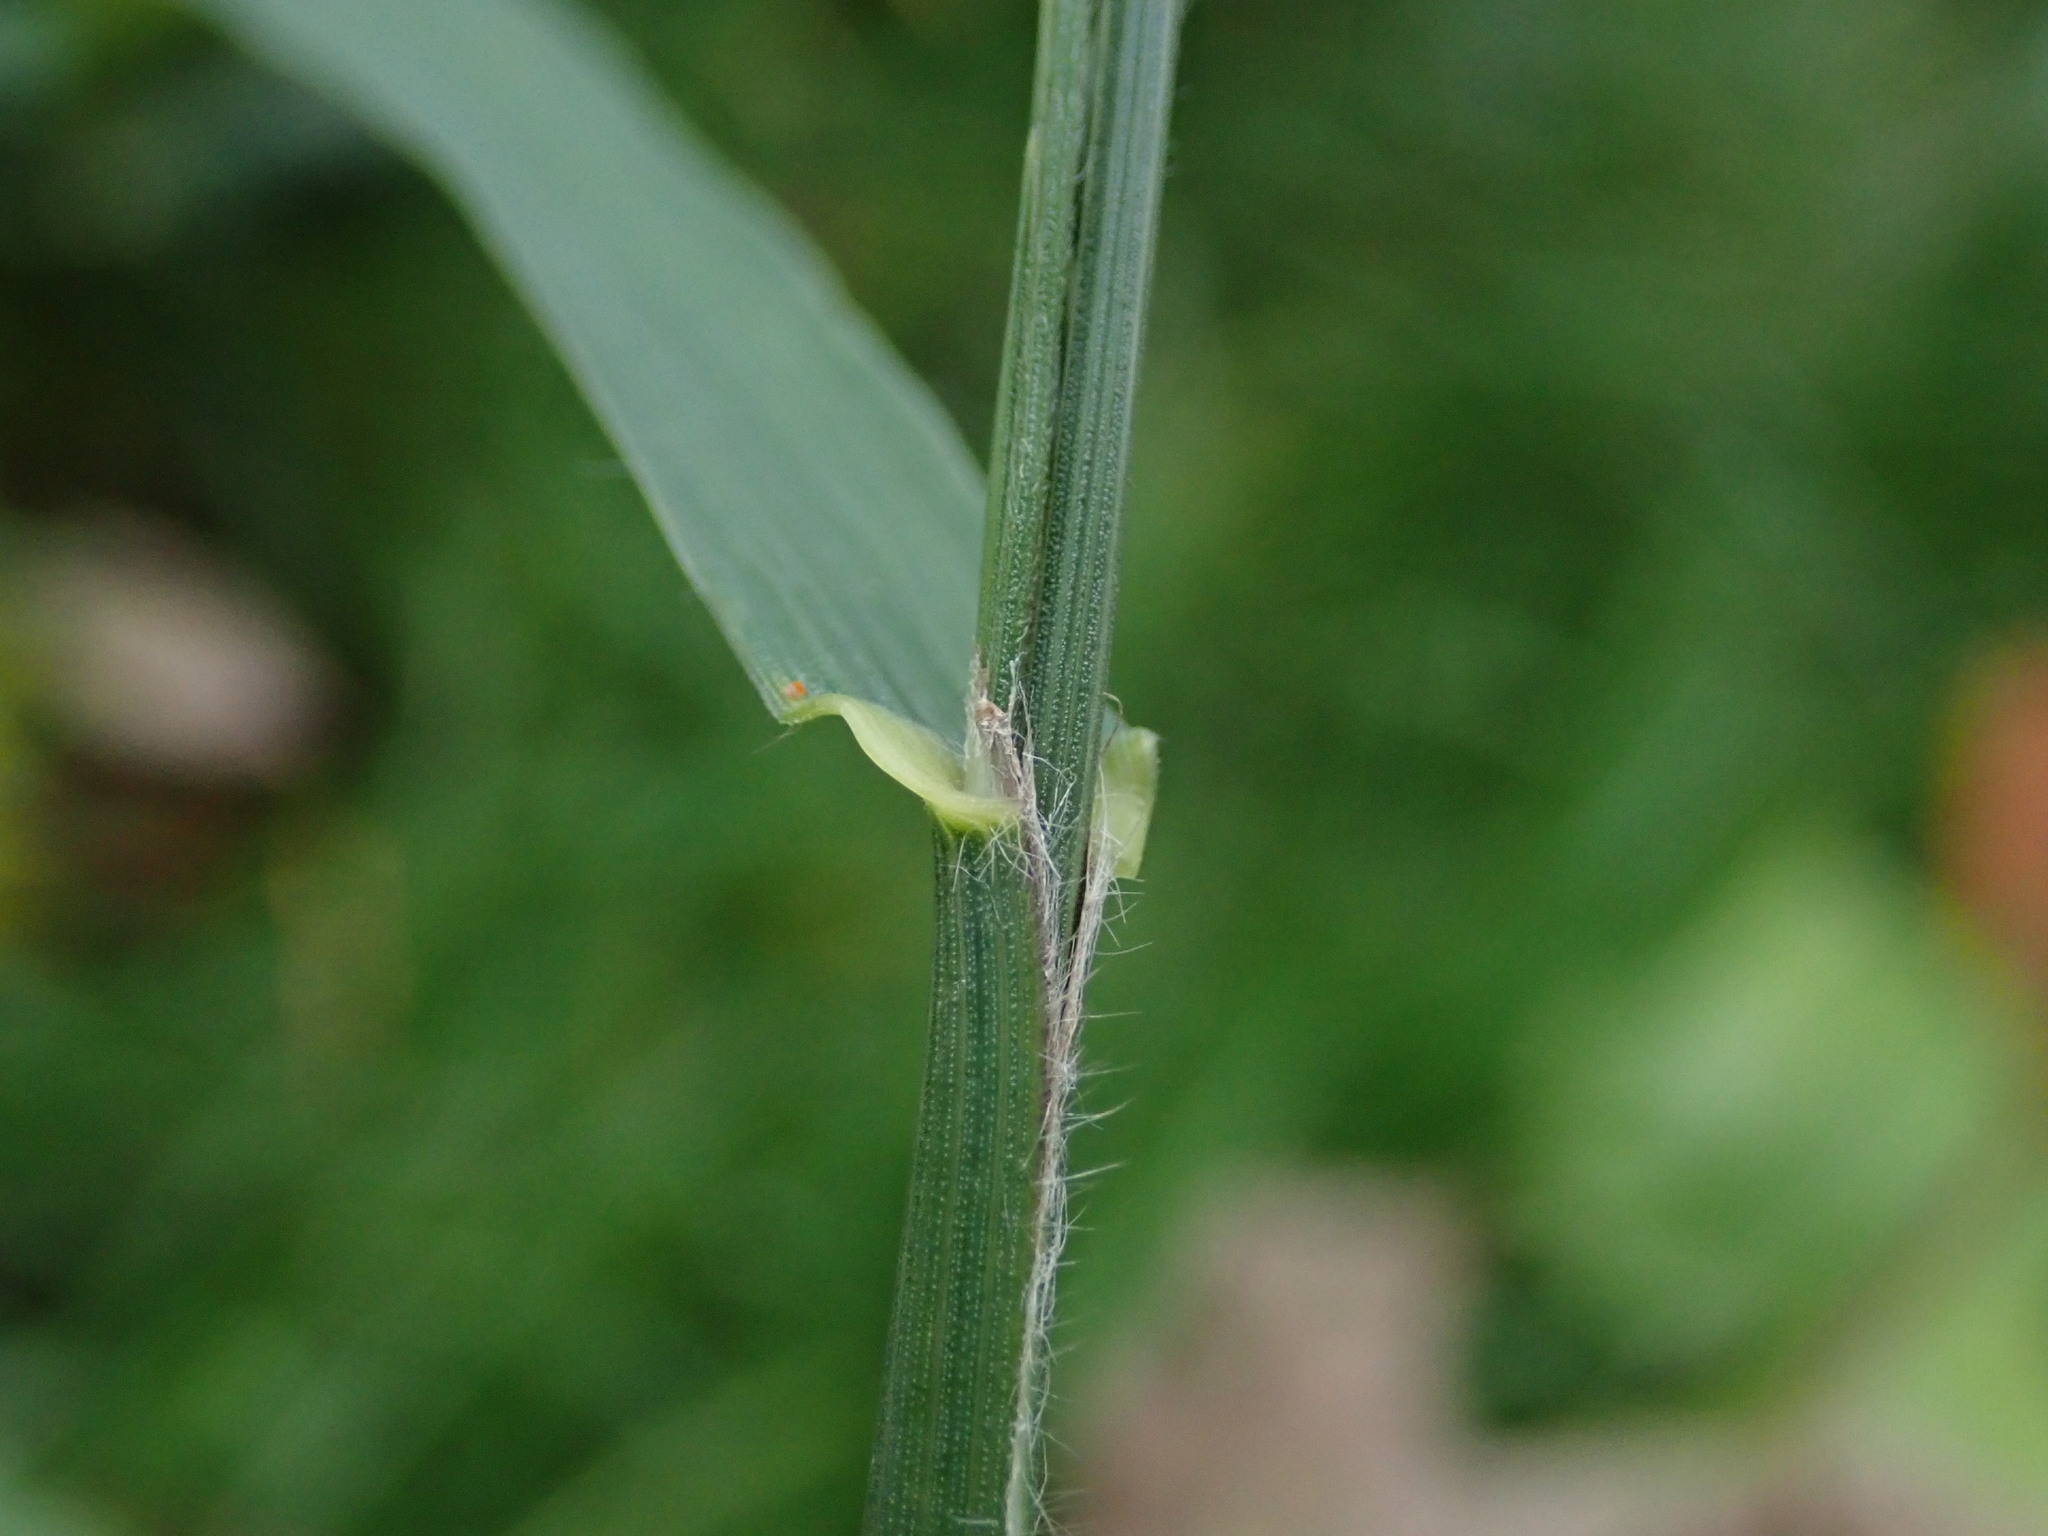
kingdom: Plantae
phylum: Tracheophyta
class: Liliopsida
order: Poales
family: Poaceae
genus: Bromus
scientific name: Bromus carinatus
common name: Mountain brome
